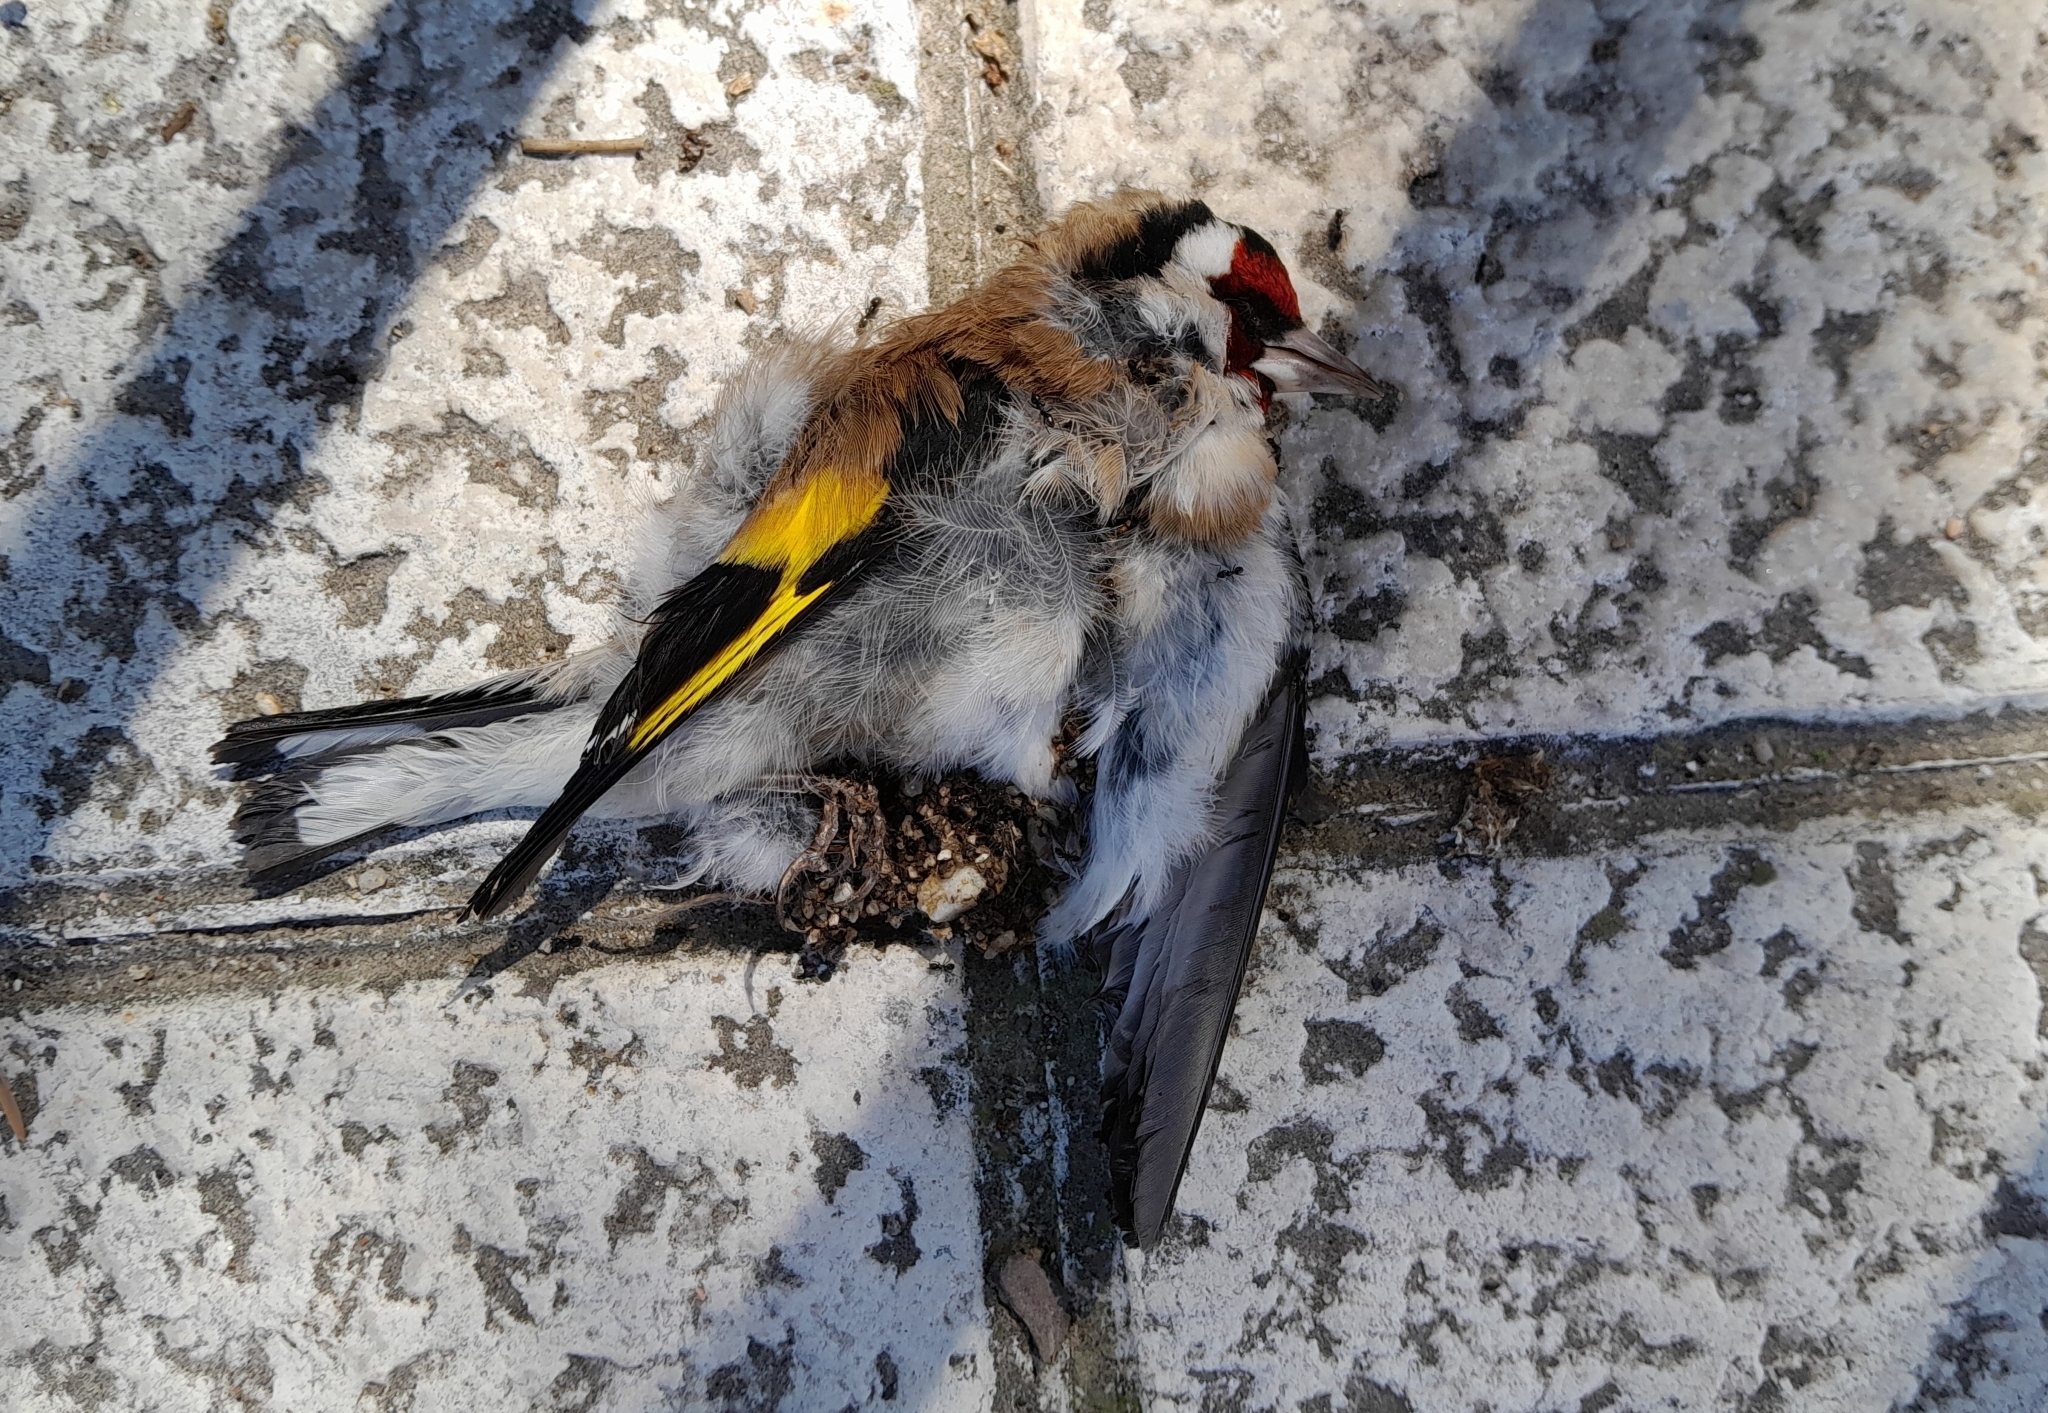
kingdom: Animalia
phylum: Chordata
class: Aves
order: Passeriformes
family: Fringillidae
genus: Carduelis
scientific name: Carduelis carduelis
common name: European goldfinch
